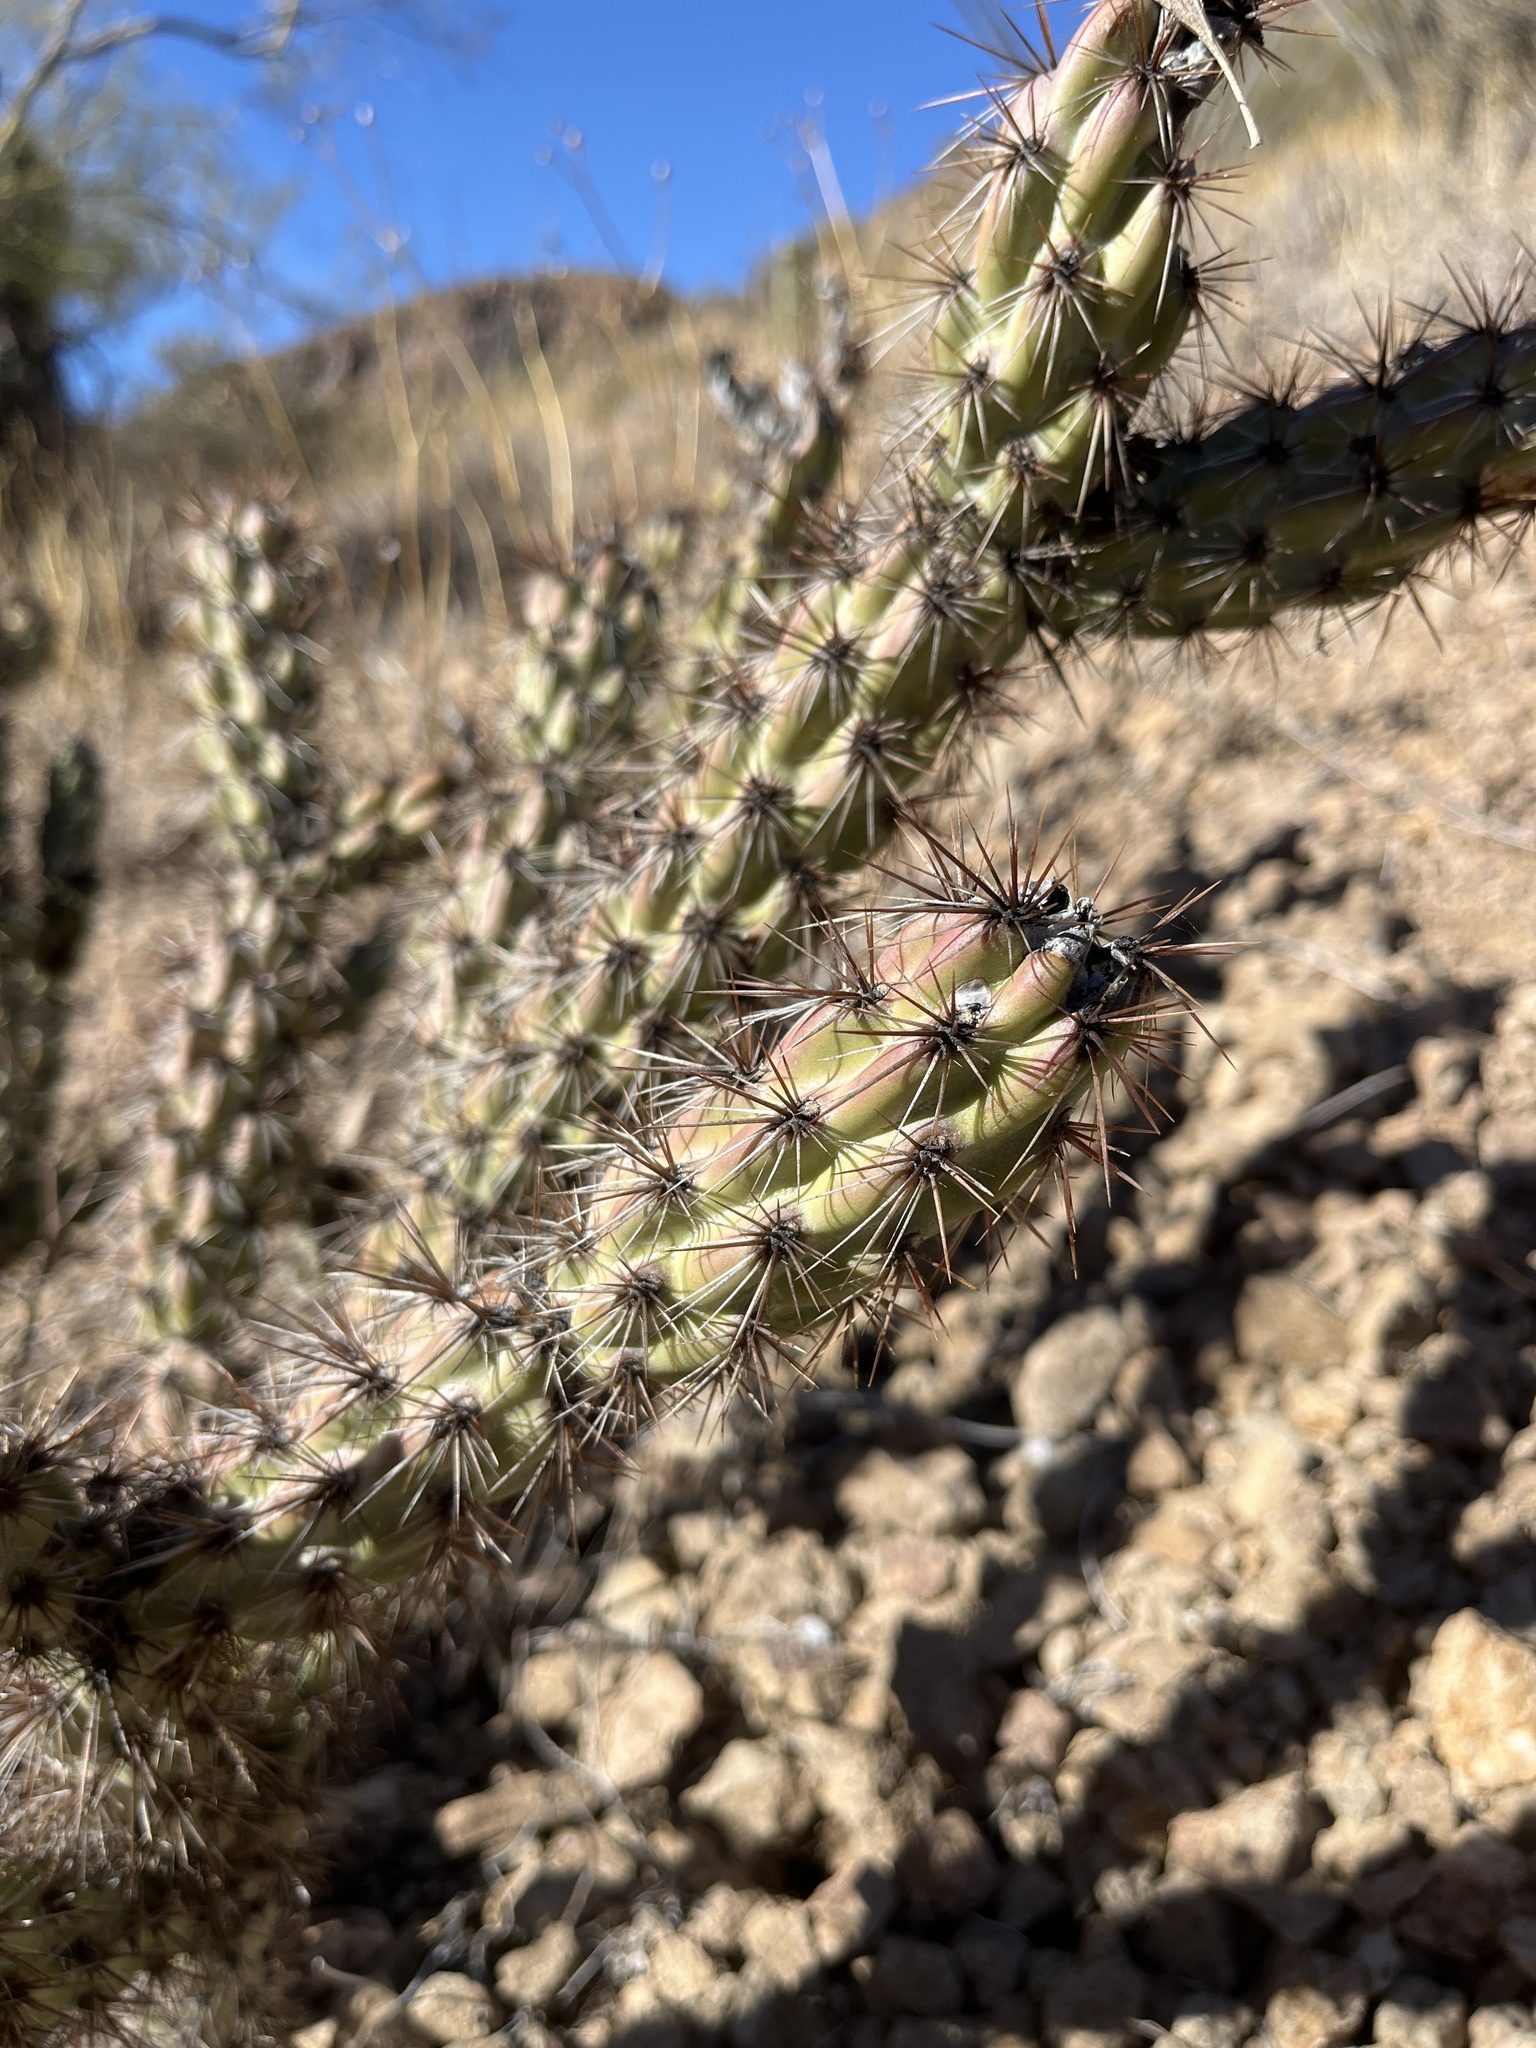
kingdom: Plantae
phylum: Tracheophyta
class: Magnoliopsida
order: Caryophyllales
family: Cactaceae
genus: Cylindropuntia
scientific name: Cylindropuntia acanthocarpa
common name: Buckhorn cholla
